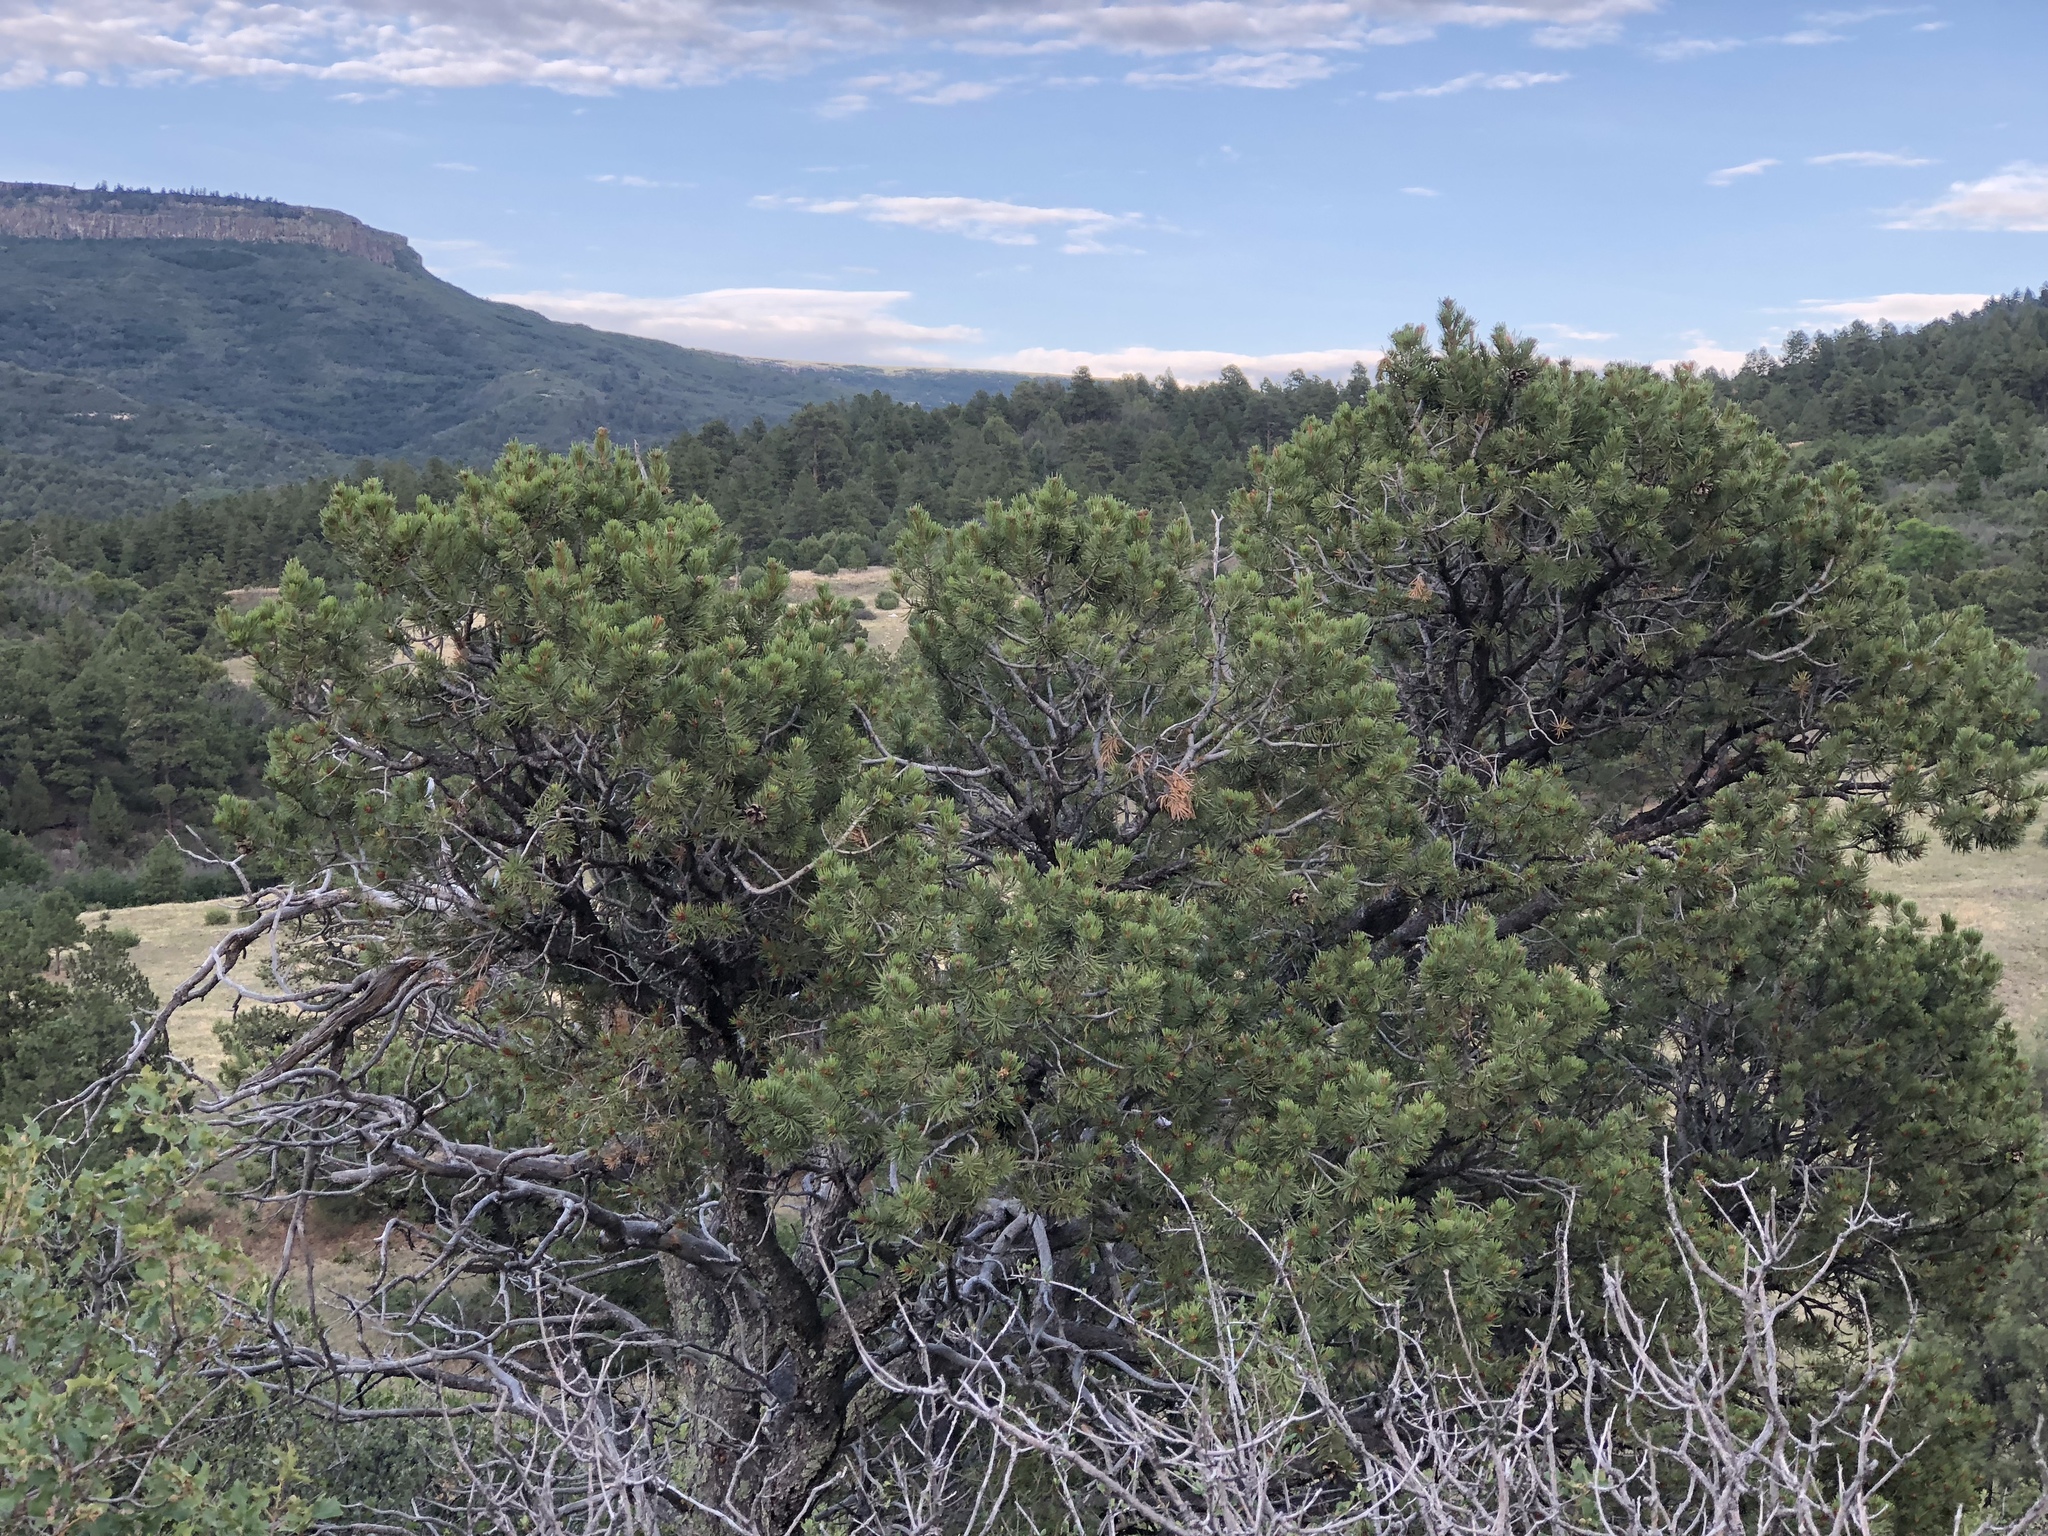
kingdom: Plantae
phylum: Tracheophyta
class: Pinopsida
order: Pinales
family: Pinaceae
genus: Pinus
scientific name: Pinus edulis
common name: Colorado pinyon
